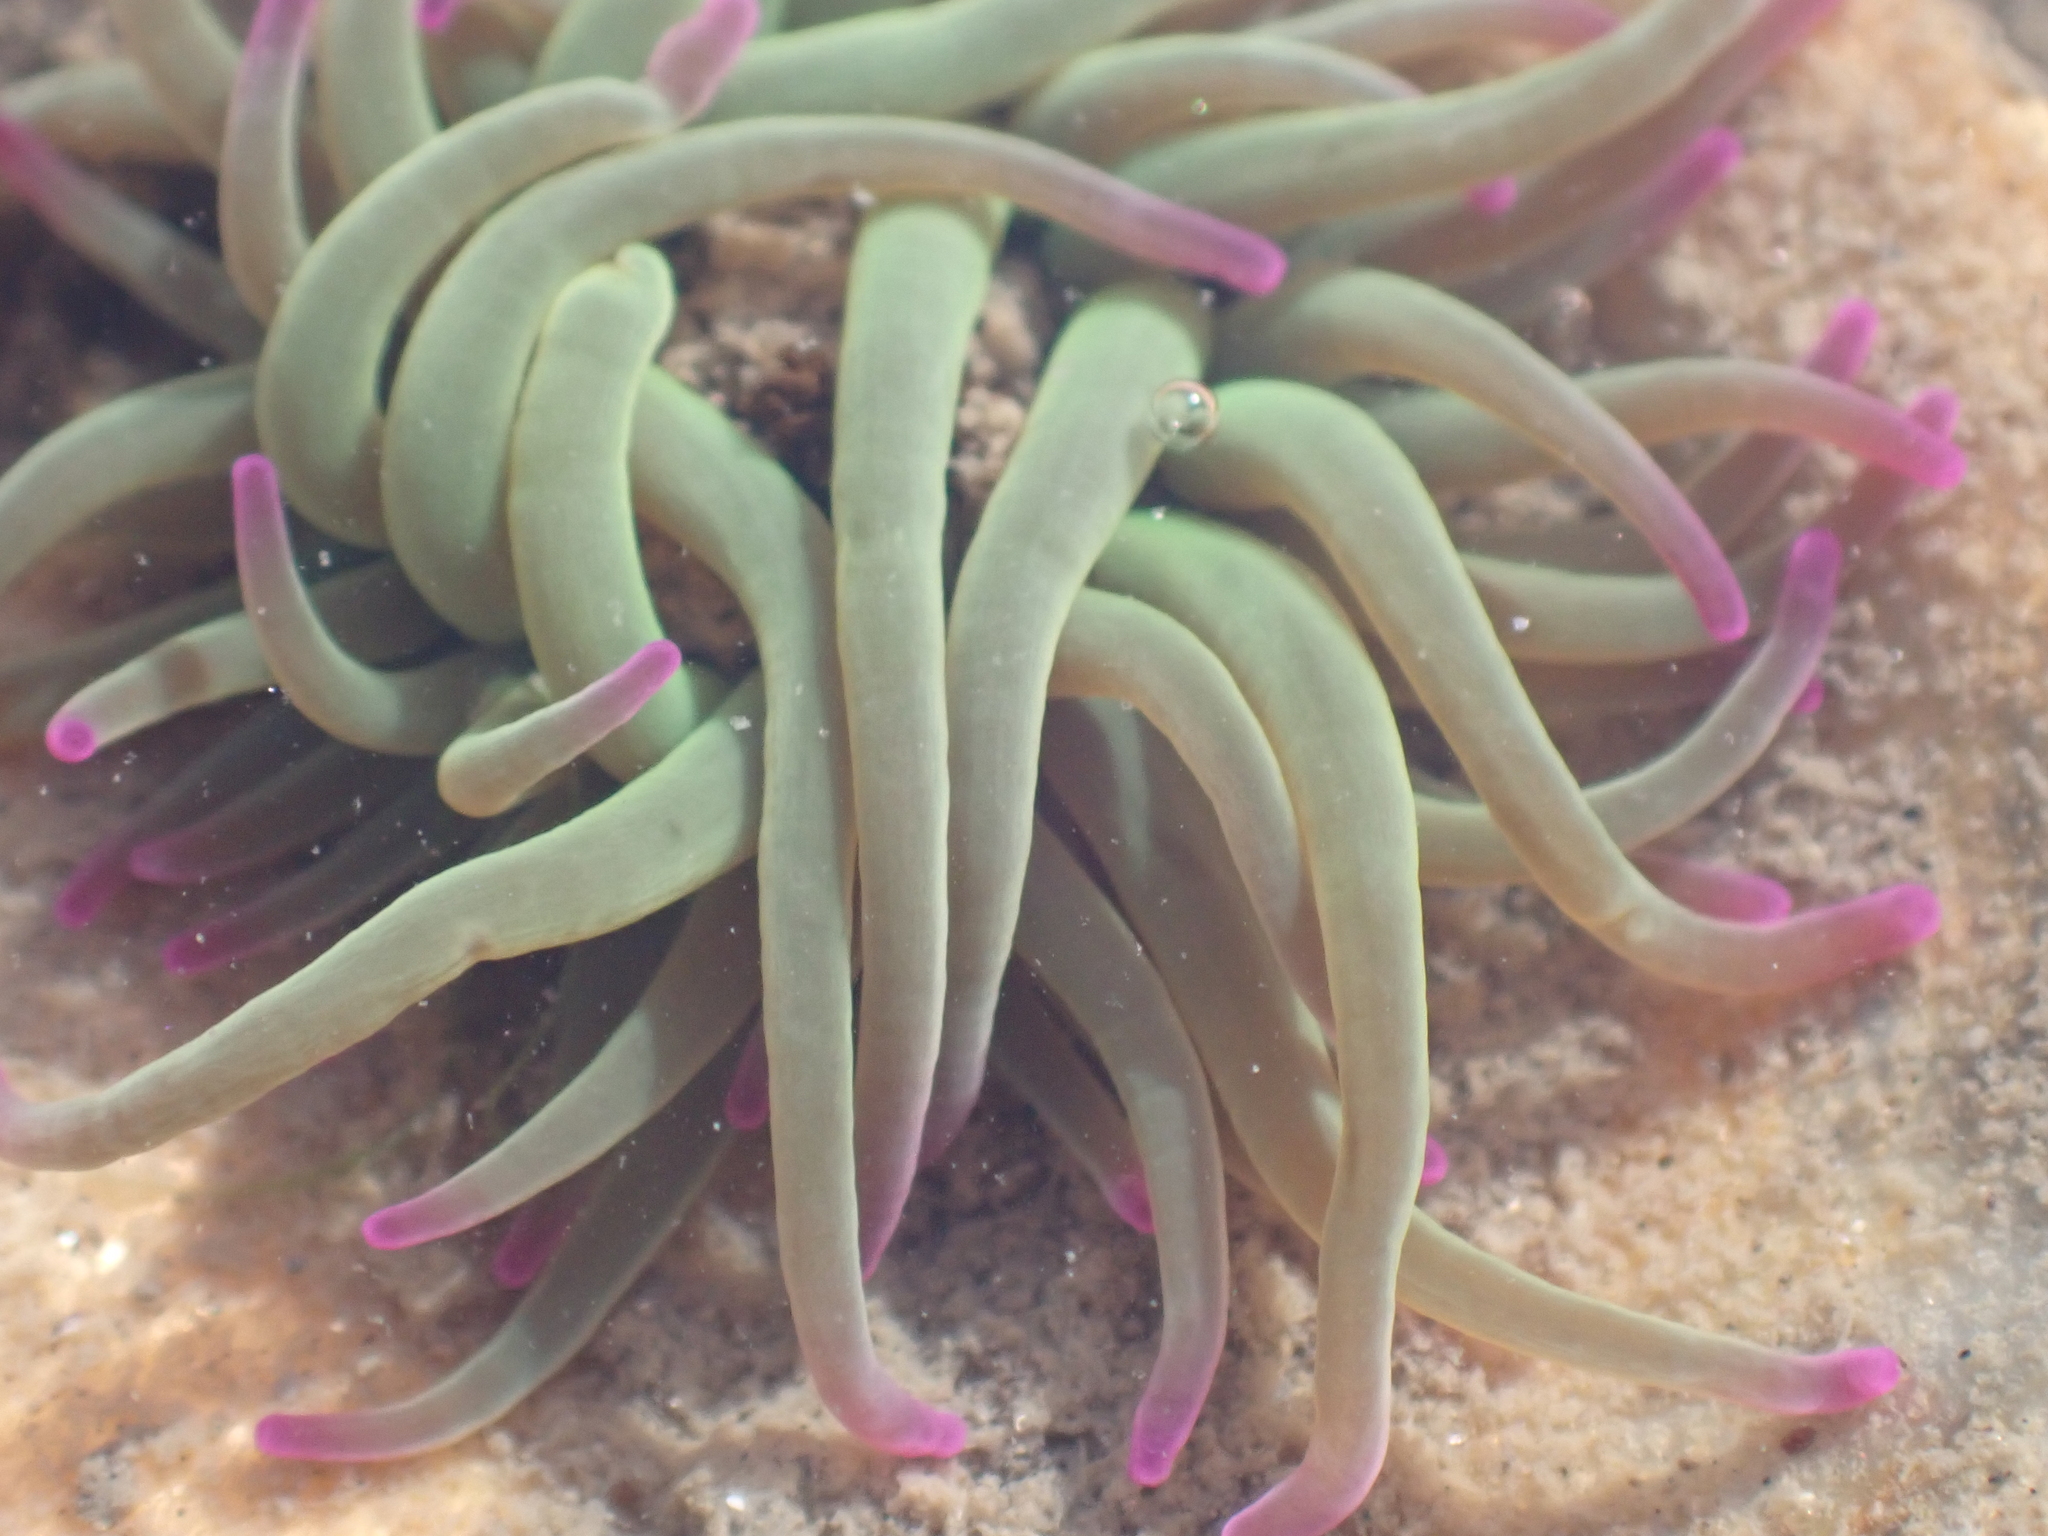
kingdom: Animalia
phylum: Cnidaria
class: Anthozoa
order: Actiniaria
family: Actiniidae
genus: Anemonia
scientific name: Anemonia viridis
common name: Snakelocks anemone
